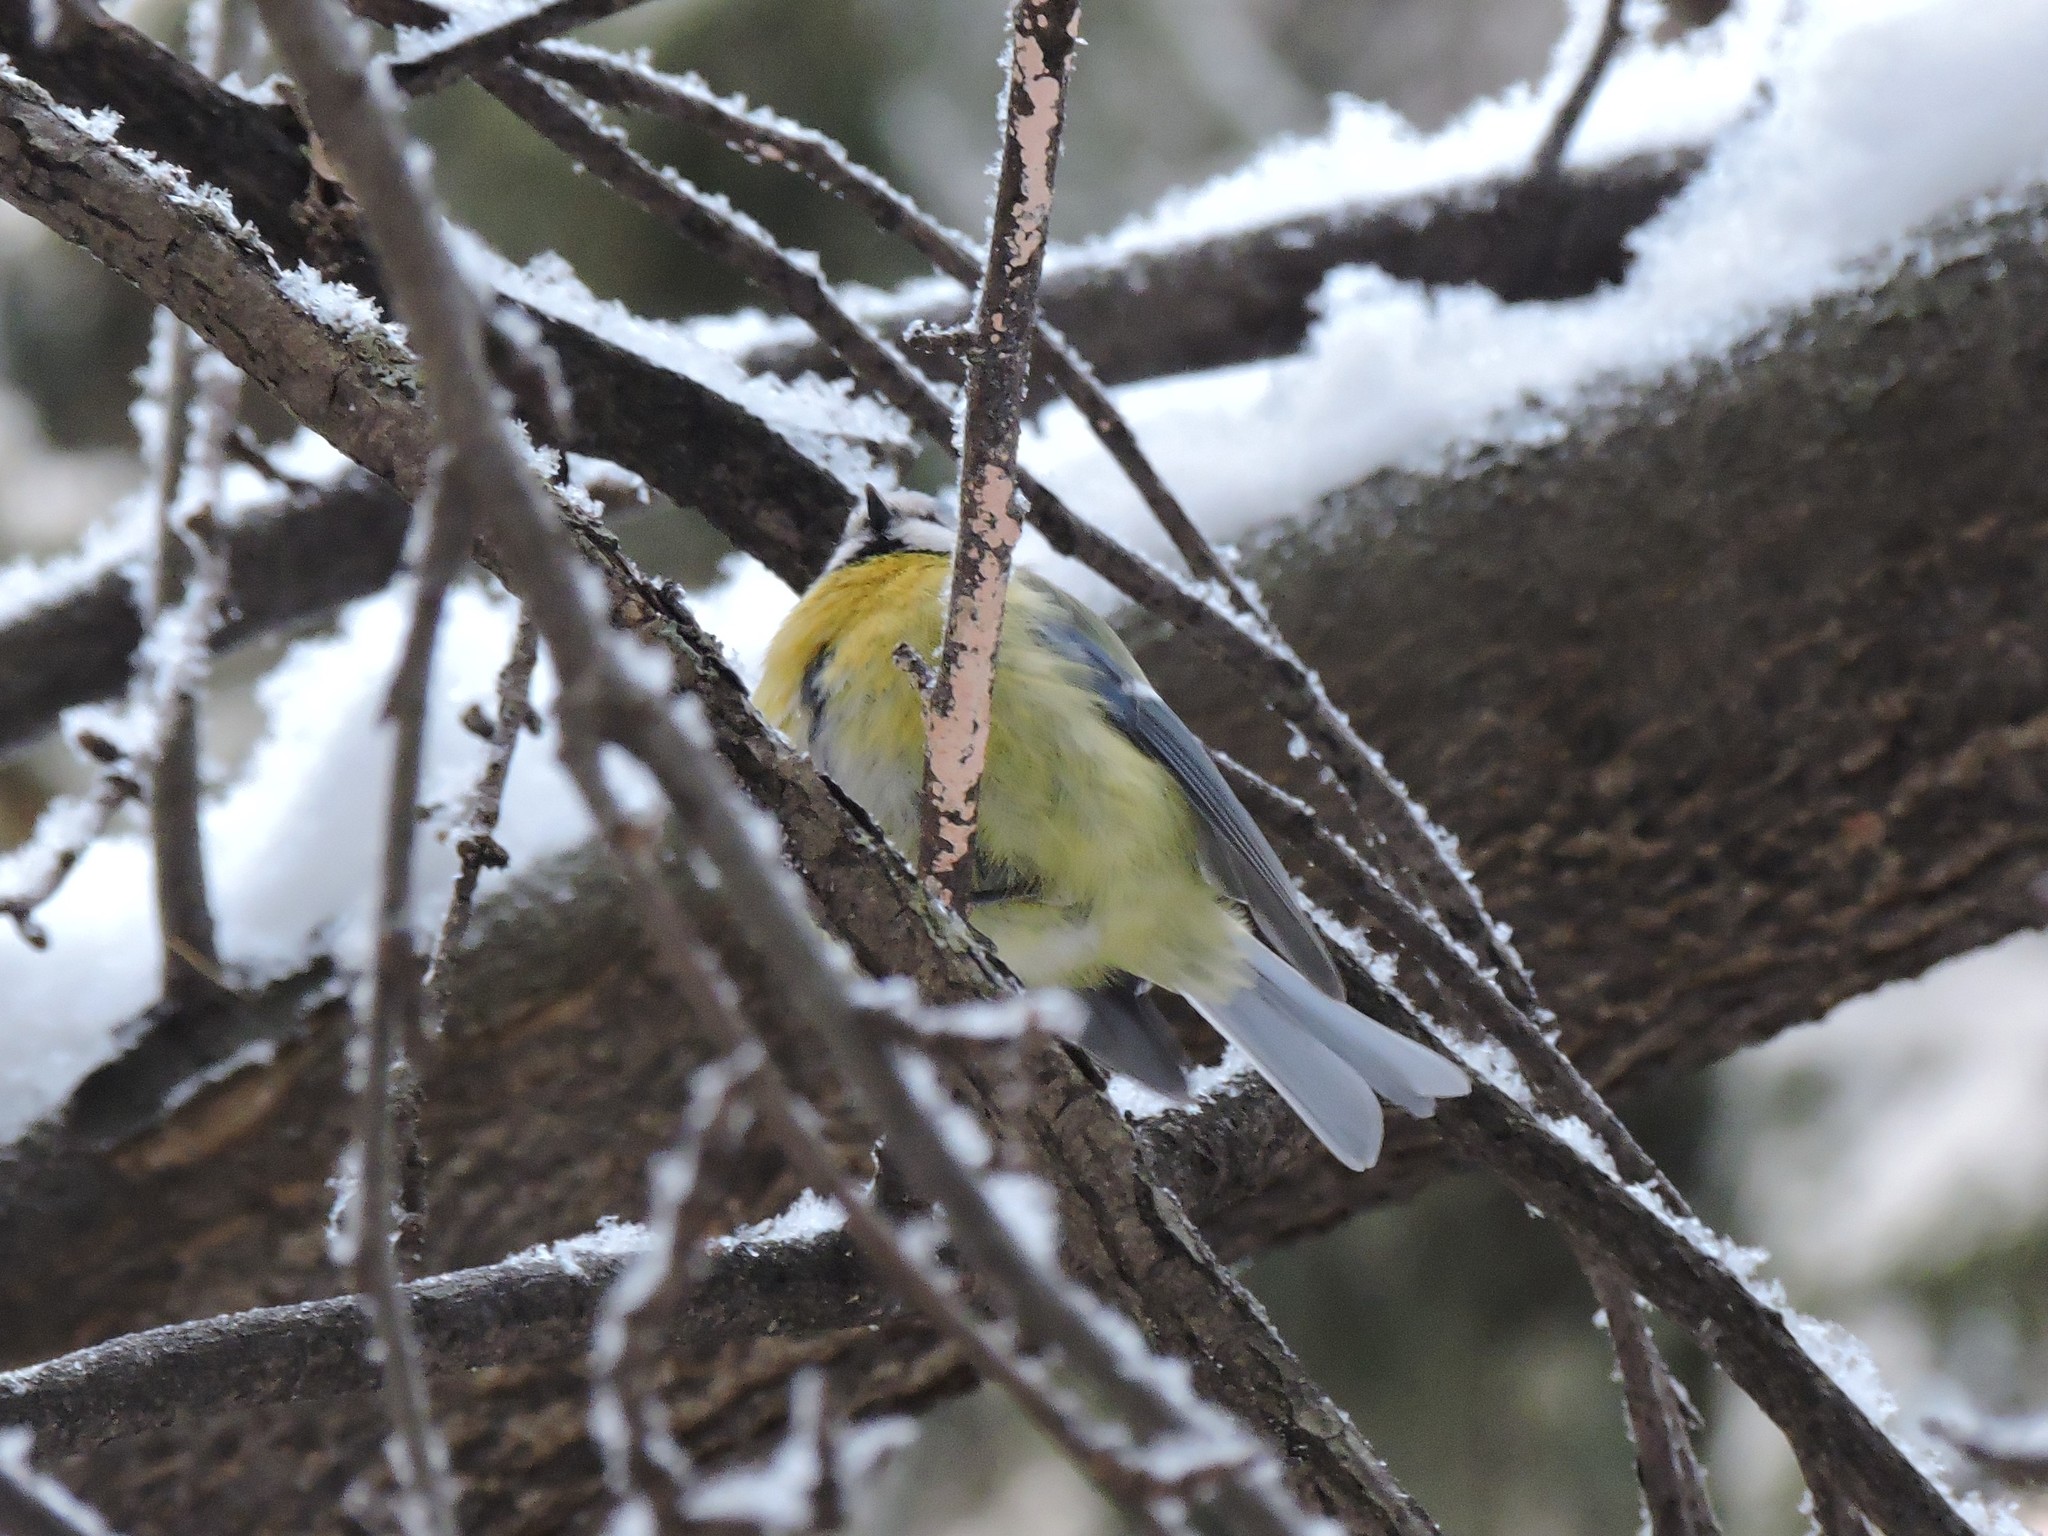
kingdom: Animalia
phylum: Chordata
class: Aves
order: Passeriformes
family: Paridae
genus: Cyanistes
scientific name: Cyanistes caeruleus
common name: Eurasian blue tit
